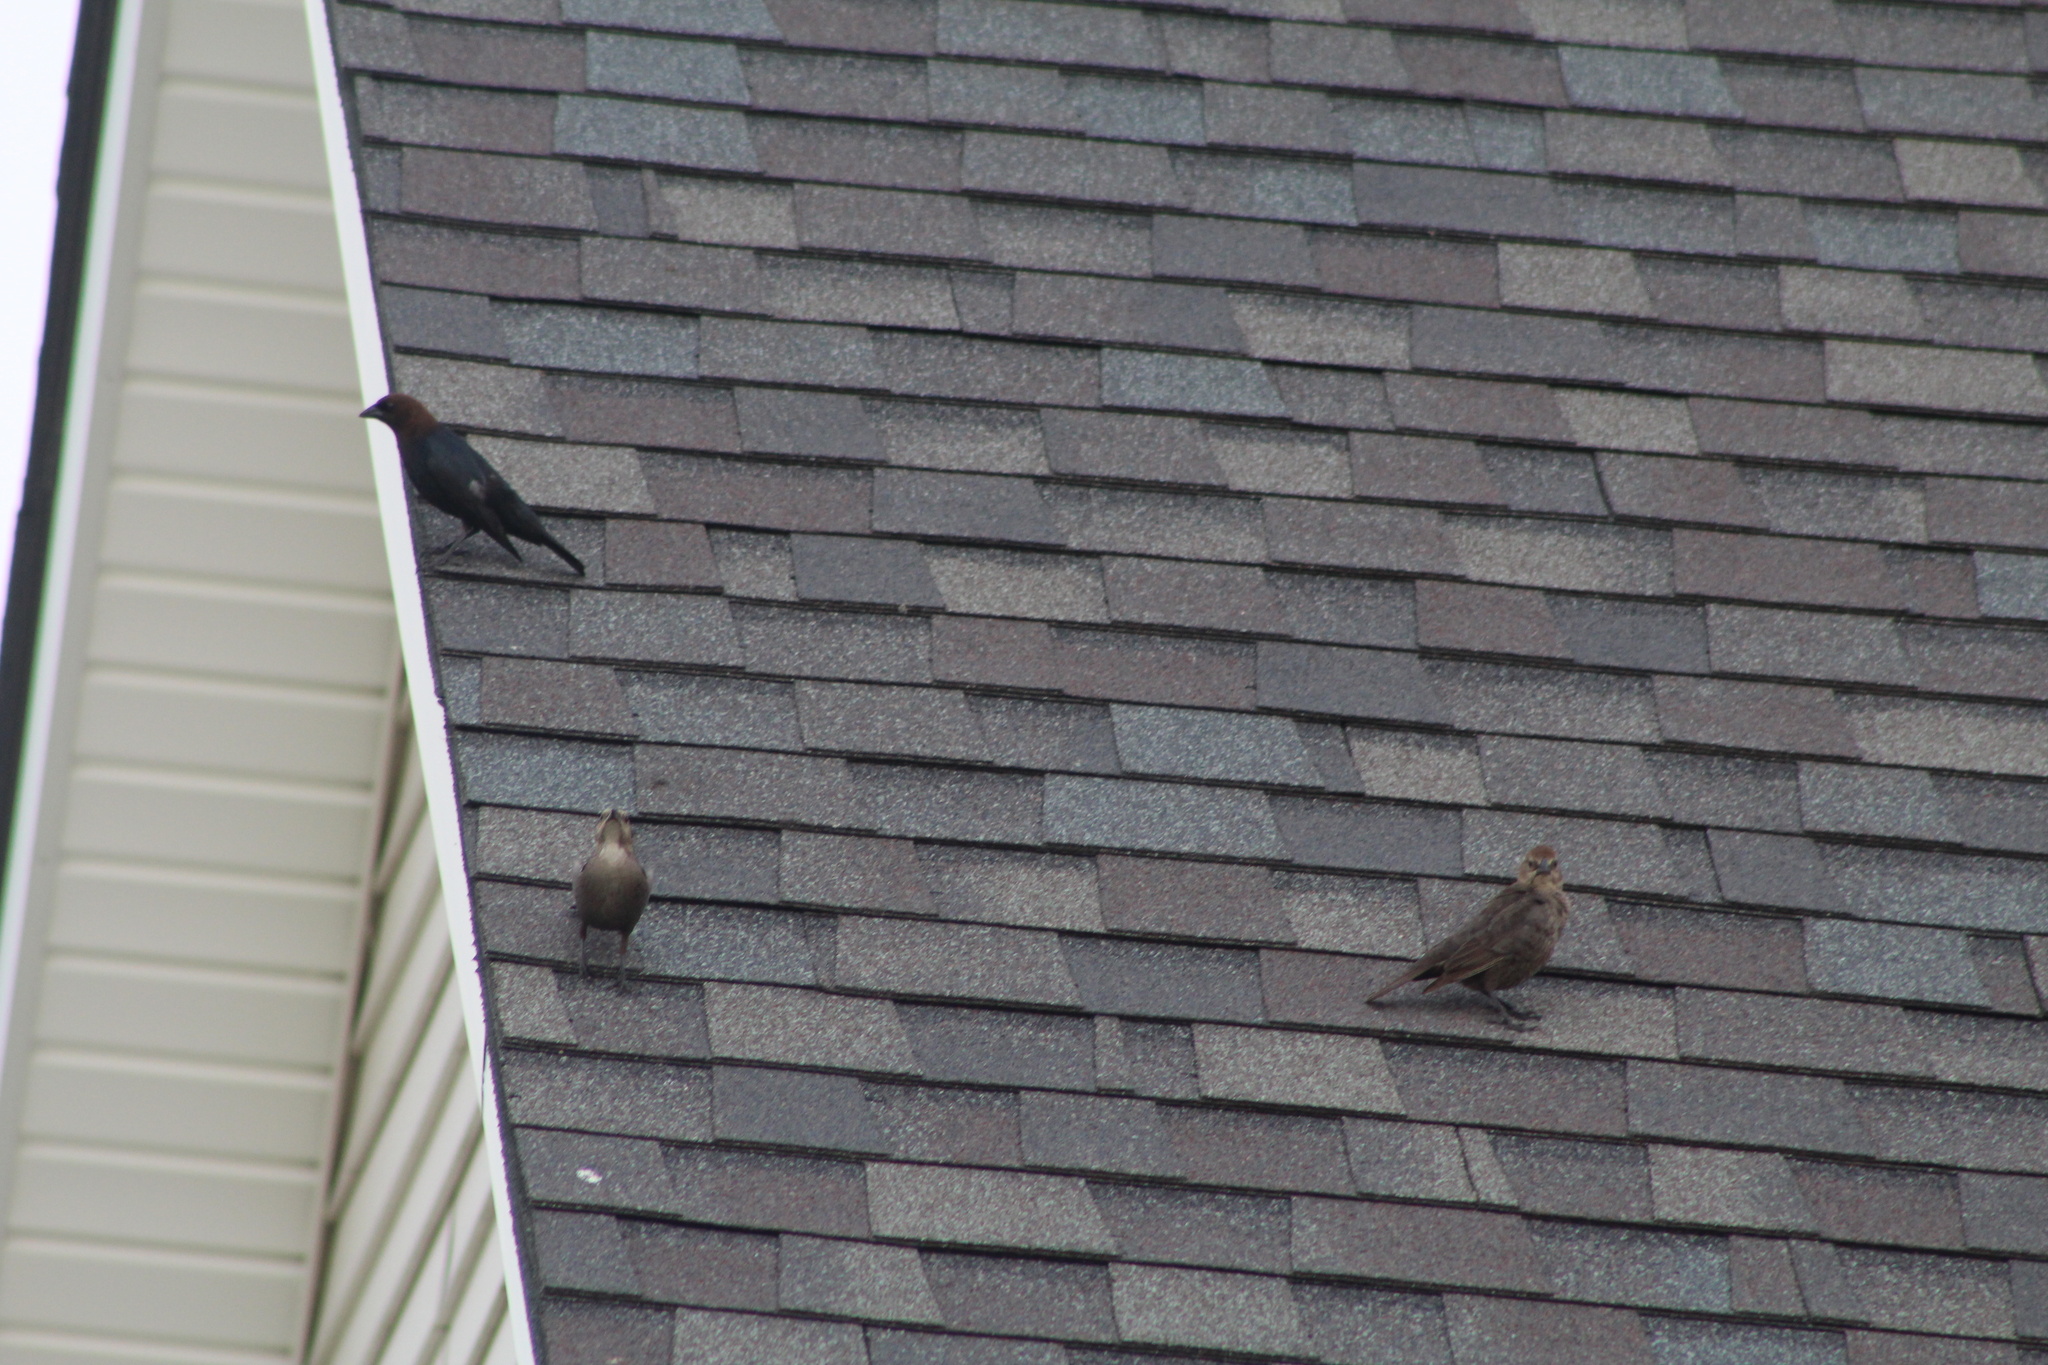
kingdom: Animalia
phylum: Chordata
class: Aves
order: Passeriformes
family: Icteridae
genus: Molothrus
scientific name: Molothrus ater
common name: Brown-headed cowbird
